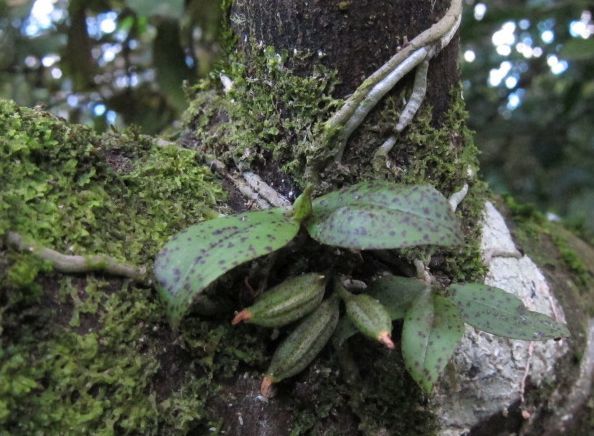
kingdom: Plantae
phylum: Tracheophyta
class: Liliopsida
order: Asparagales
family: Orchidaceae
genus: Drymoanthus
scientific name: Drymoanthus flavus
